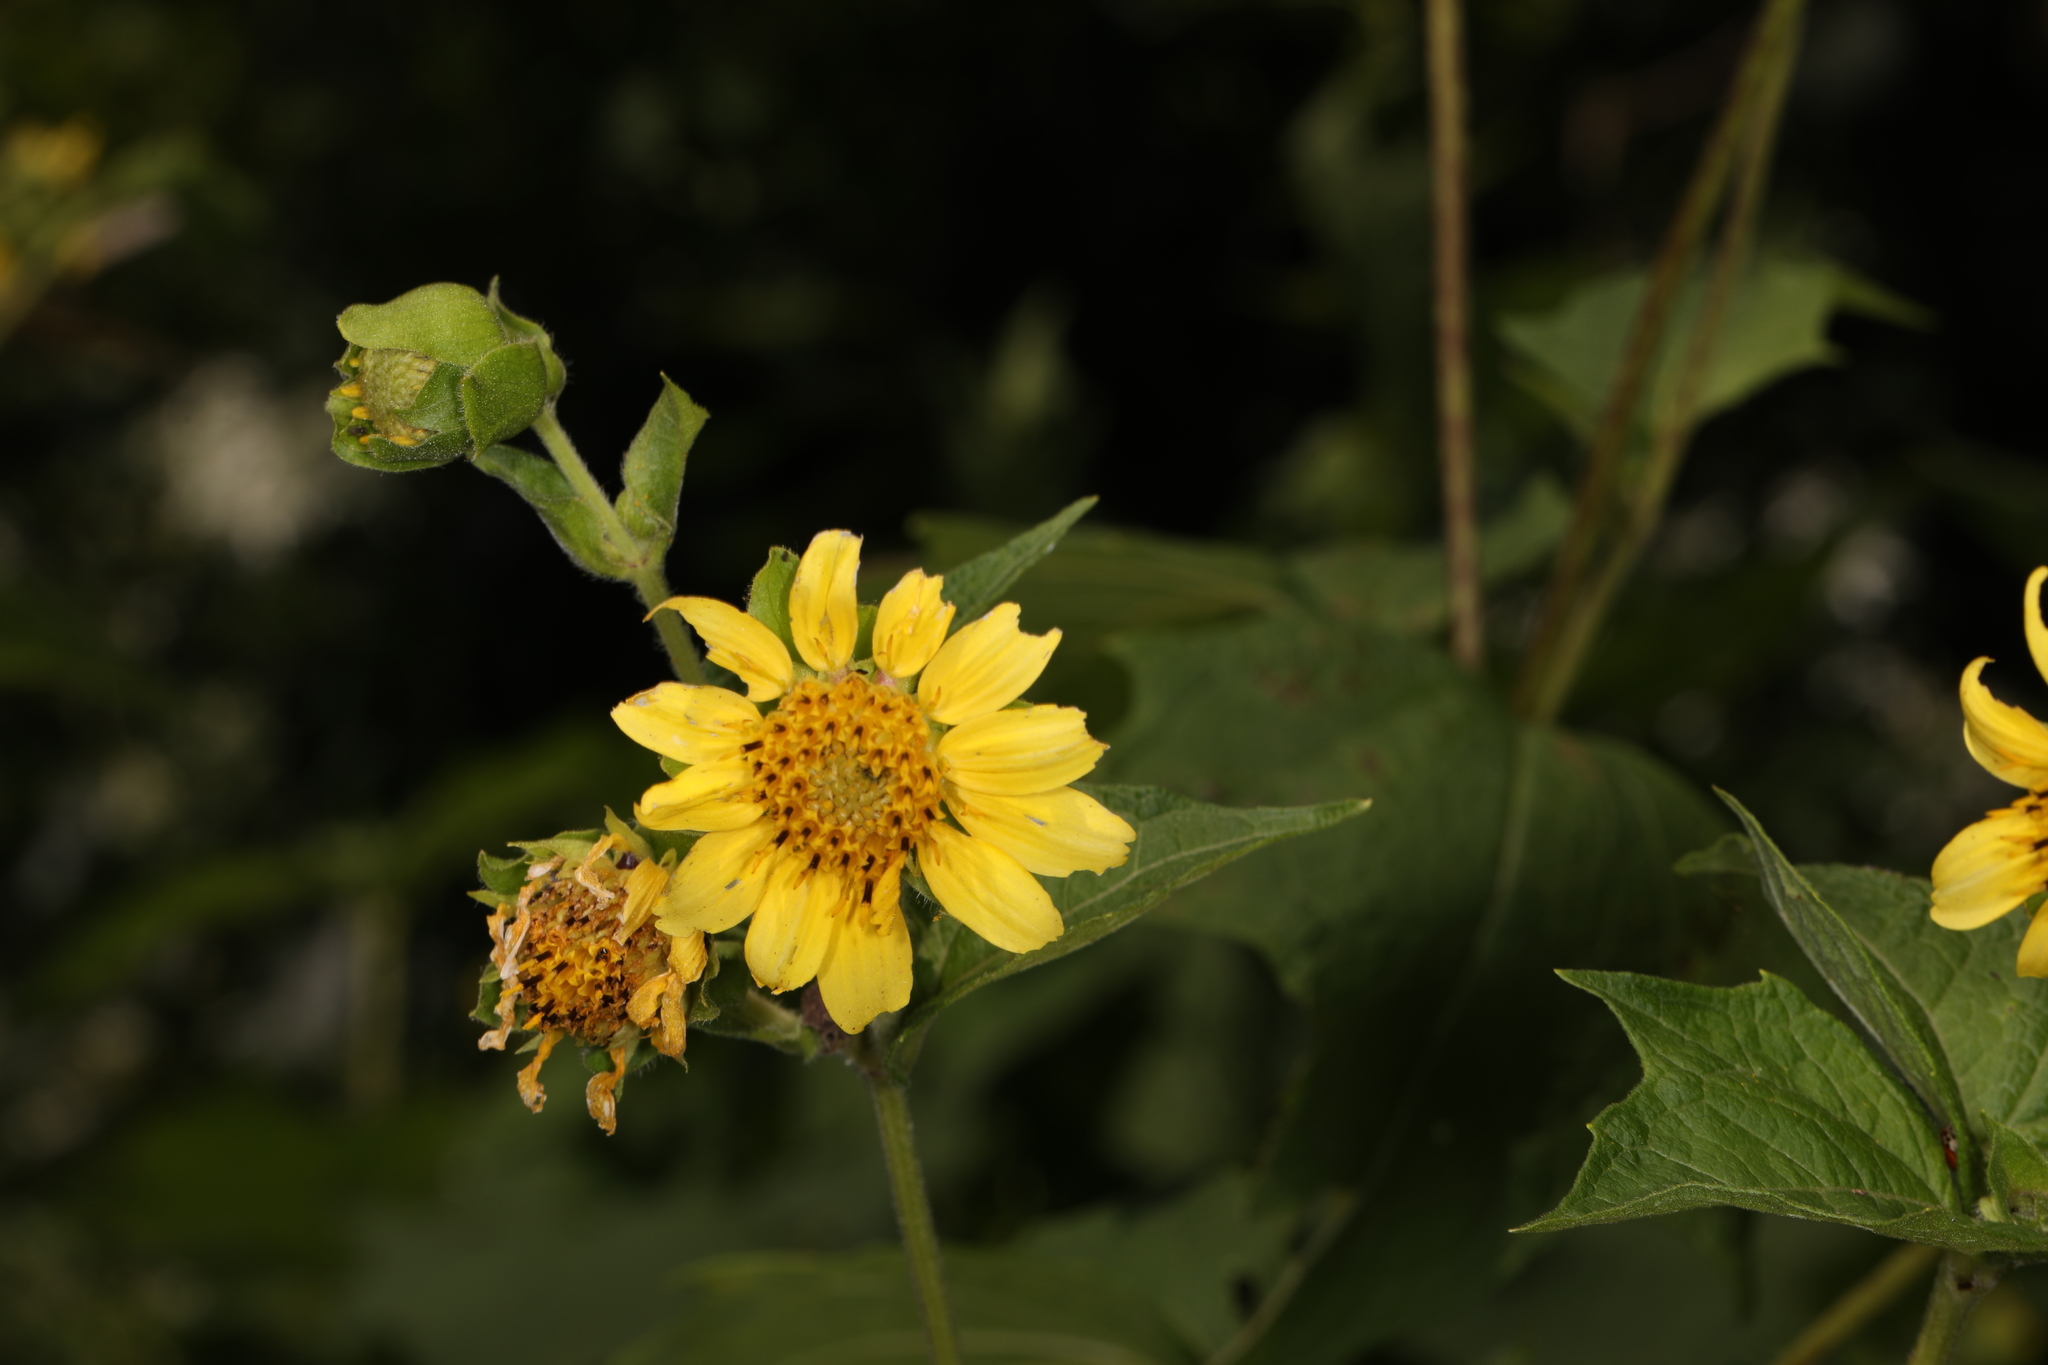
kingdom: Plantae
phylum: Tracheophyta
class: Magnoliopsida
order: Asterales
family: Asteraceae
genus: Smallanthus
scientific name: Smallanthus uvedalia
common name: Bear's-foot
